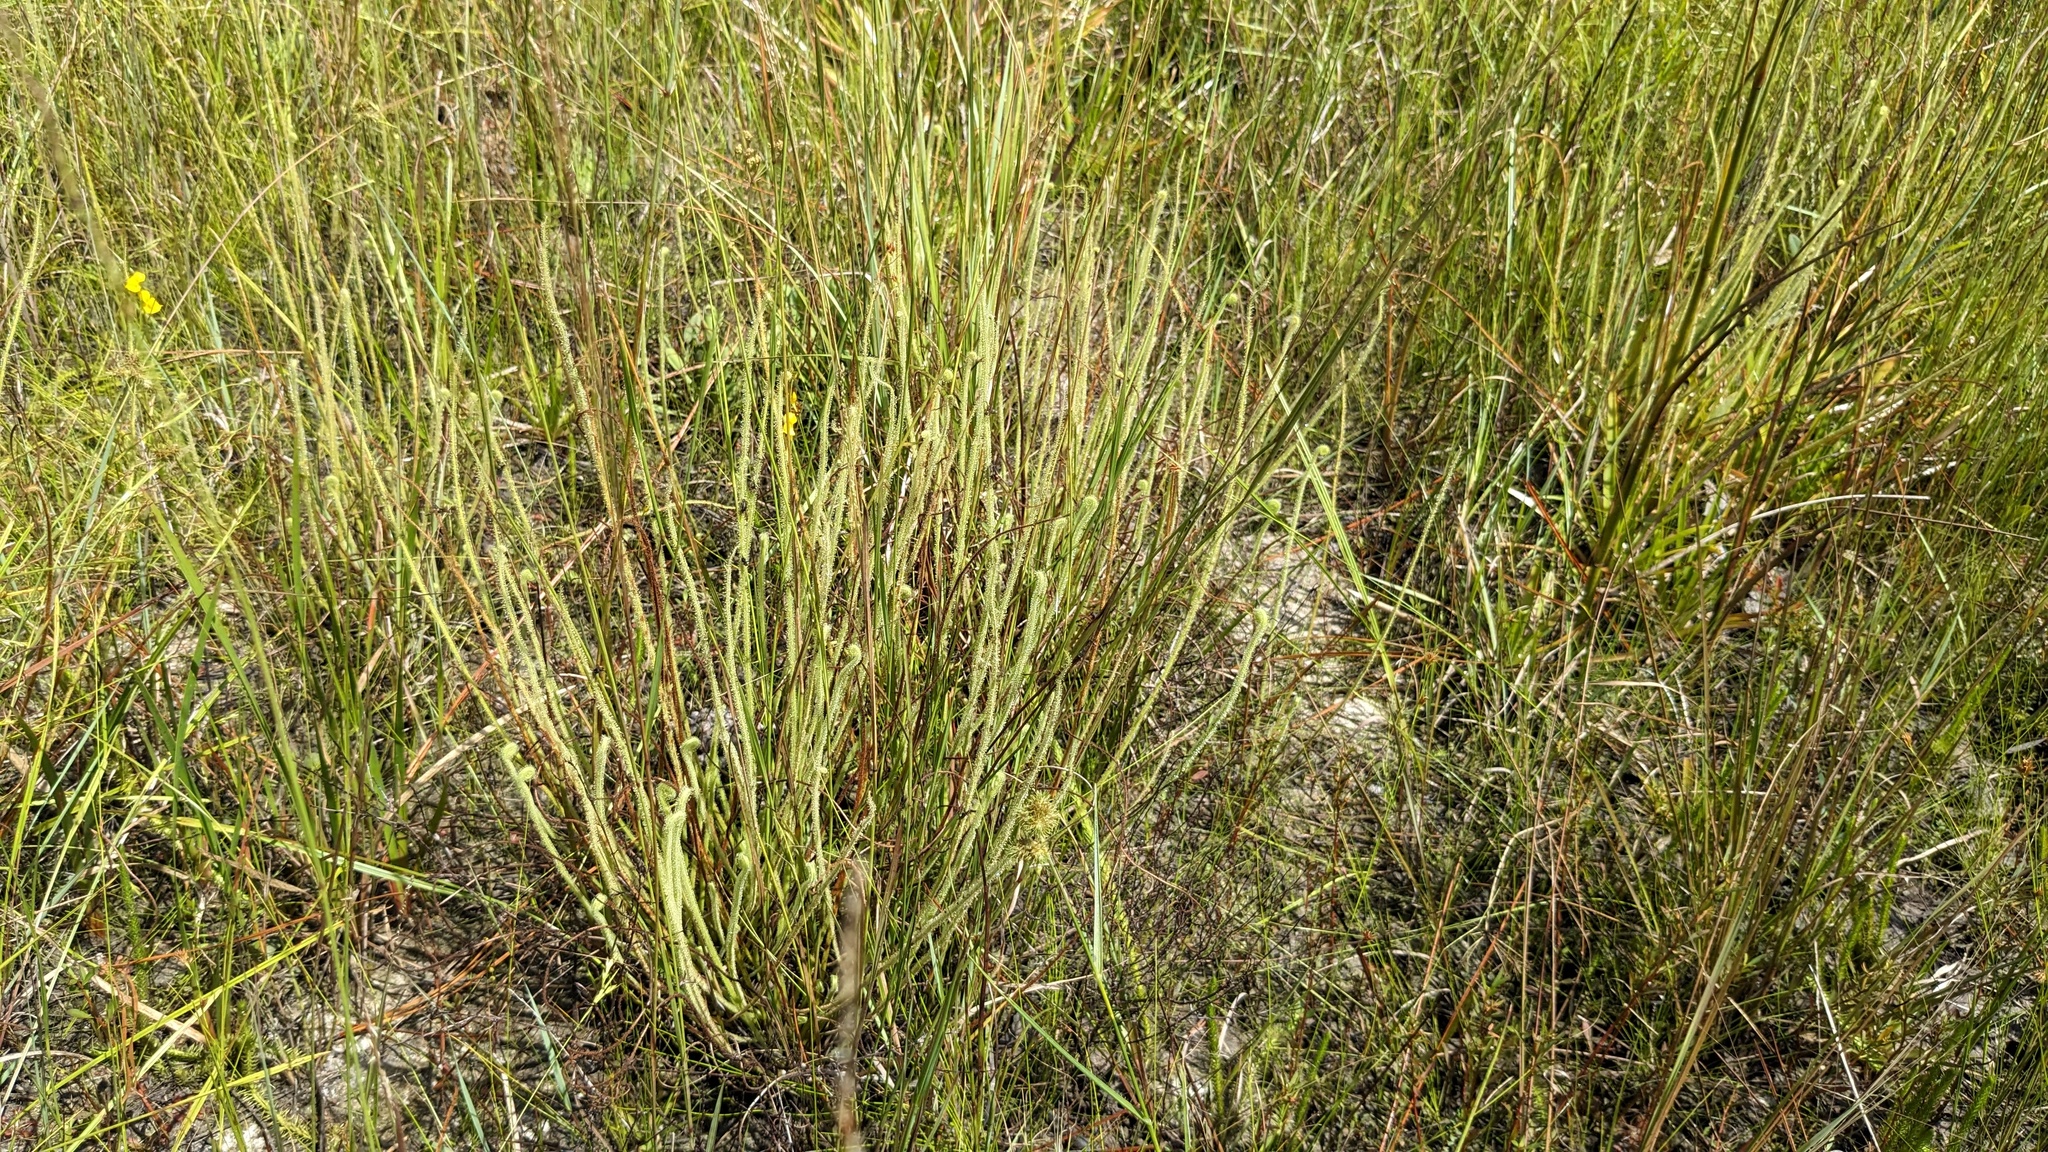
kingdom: Plantae
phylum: Tracheophyta
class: Magnoliopsida
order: Caryophyllales
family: Droseraceae
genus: Drosera
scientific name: Drosera filiformis
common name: Dew-thread
